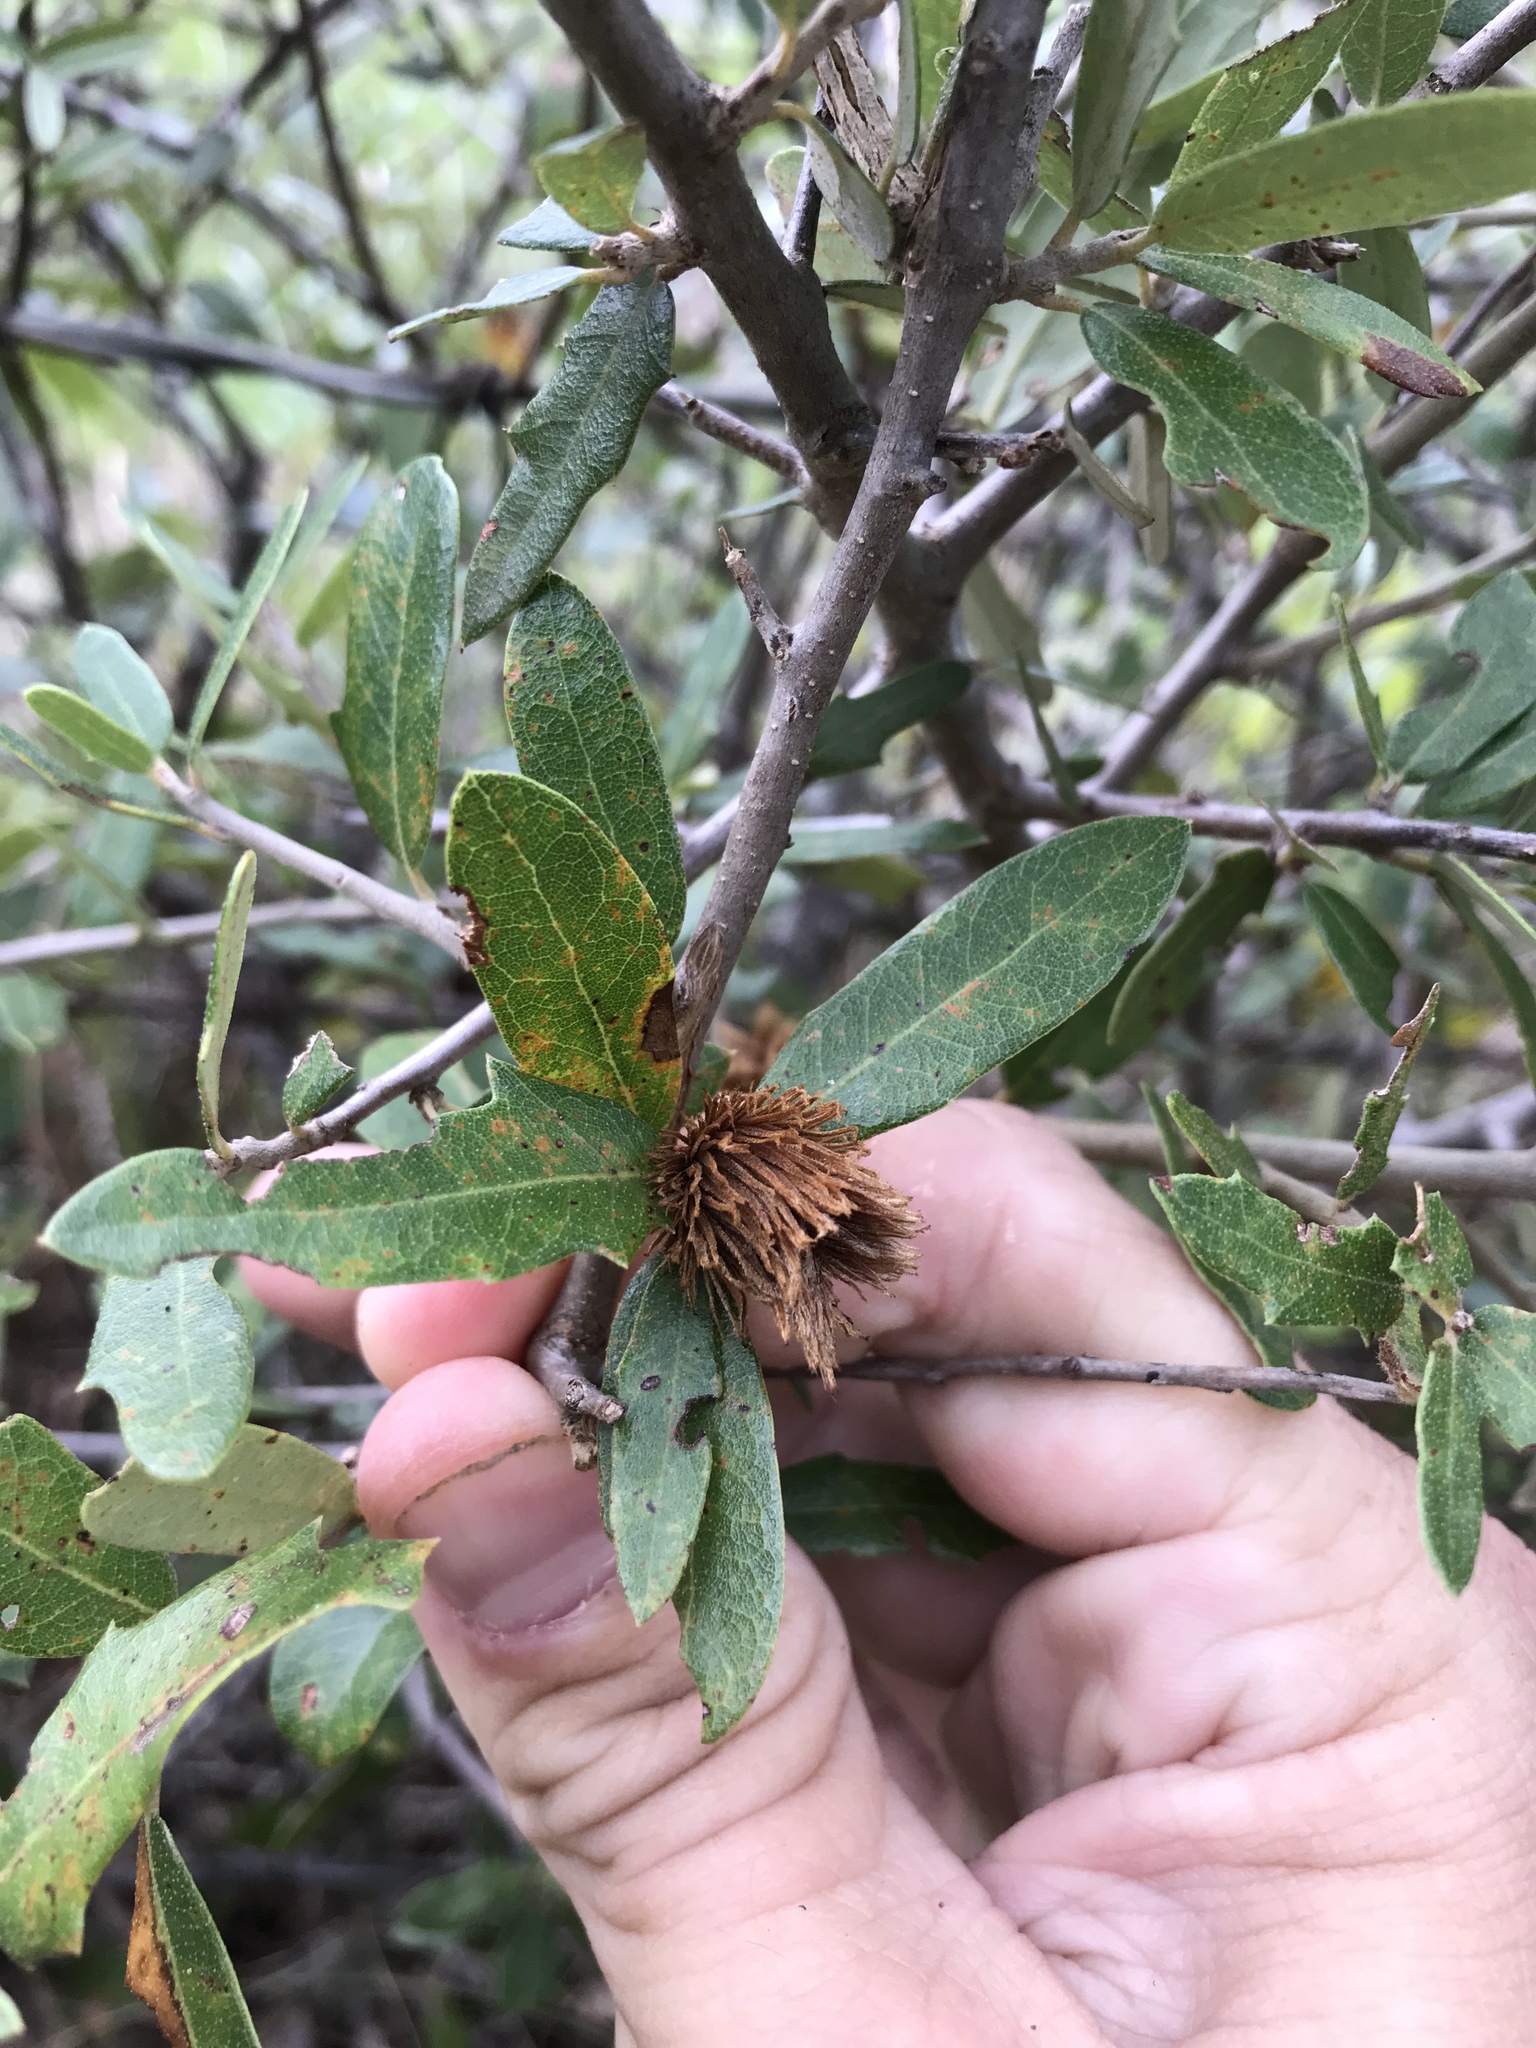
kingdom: Animalia
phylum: Arthropoda
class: Insecta
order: Hymenoptera
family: Cynipidae
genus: Andricus
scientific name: Andricus quercusfoliatus
